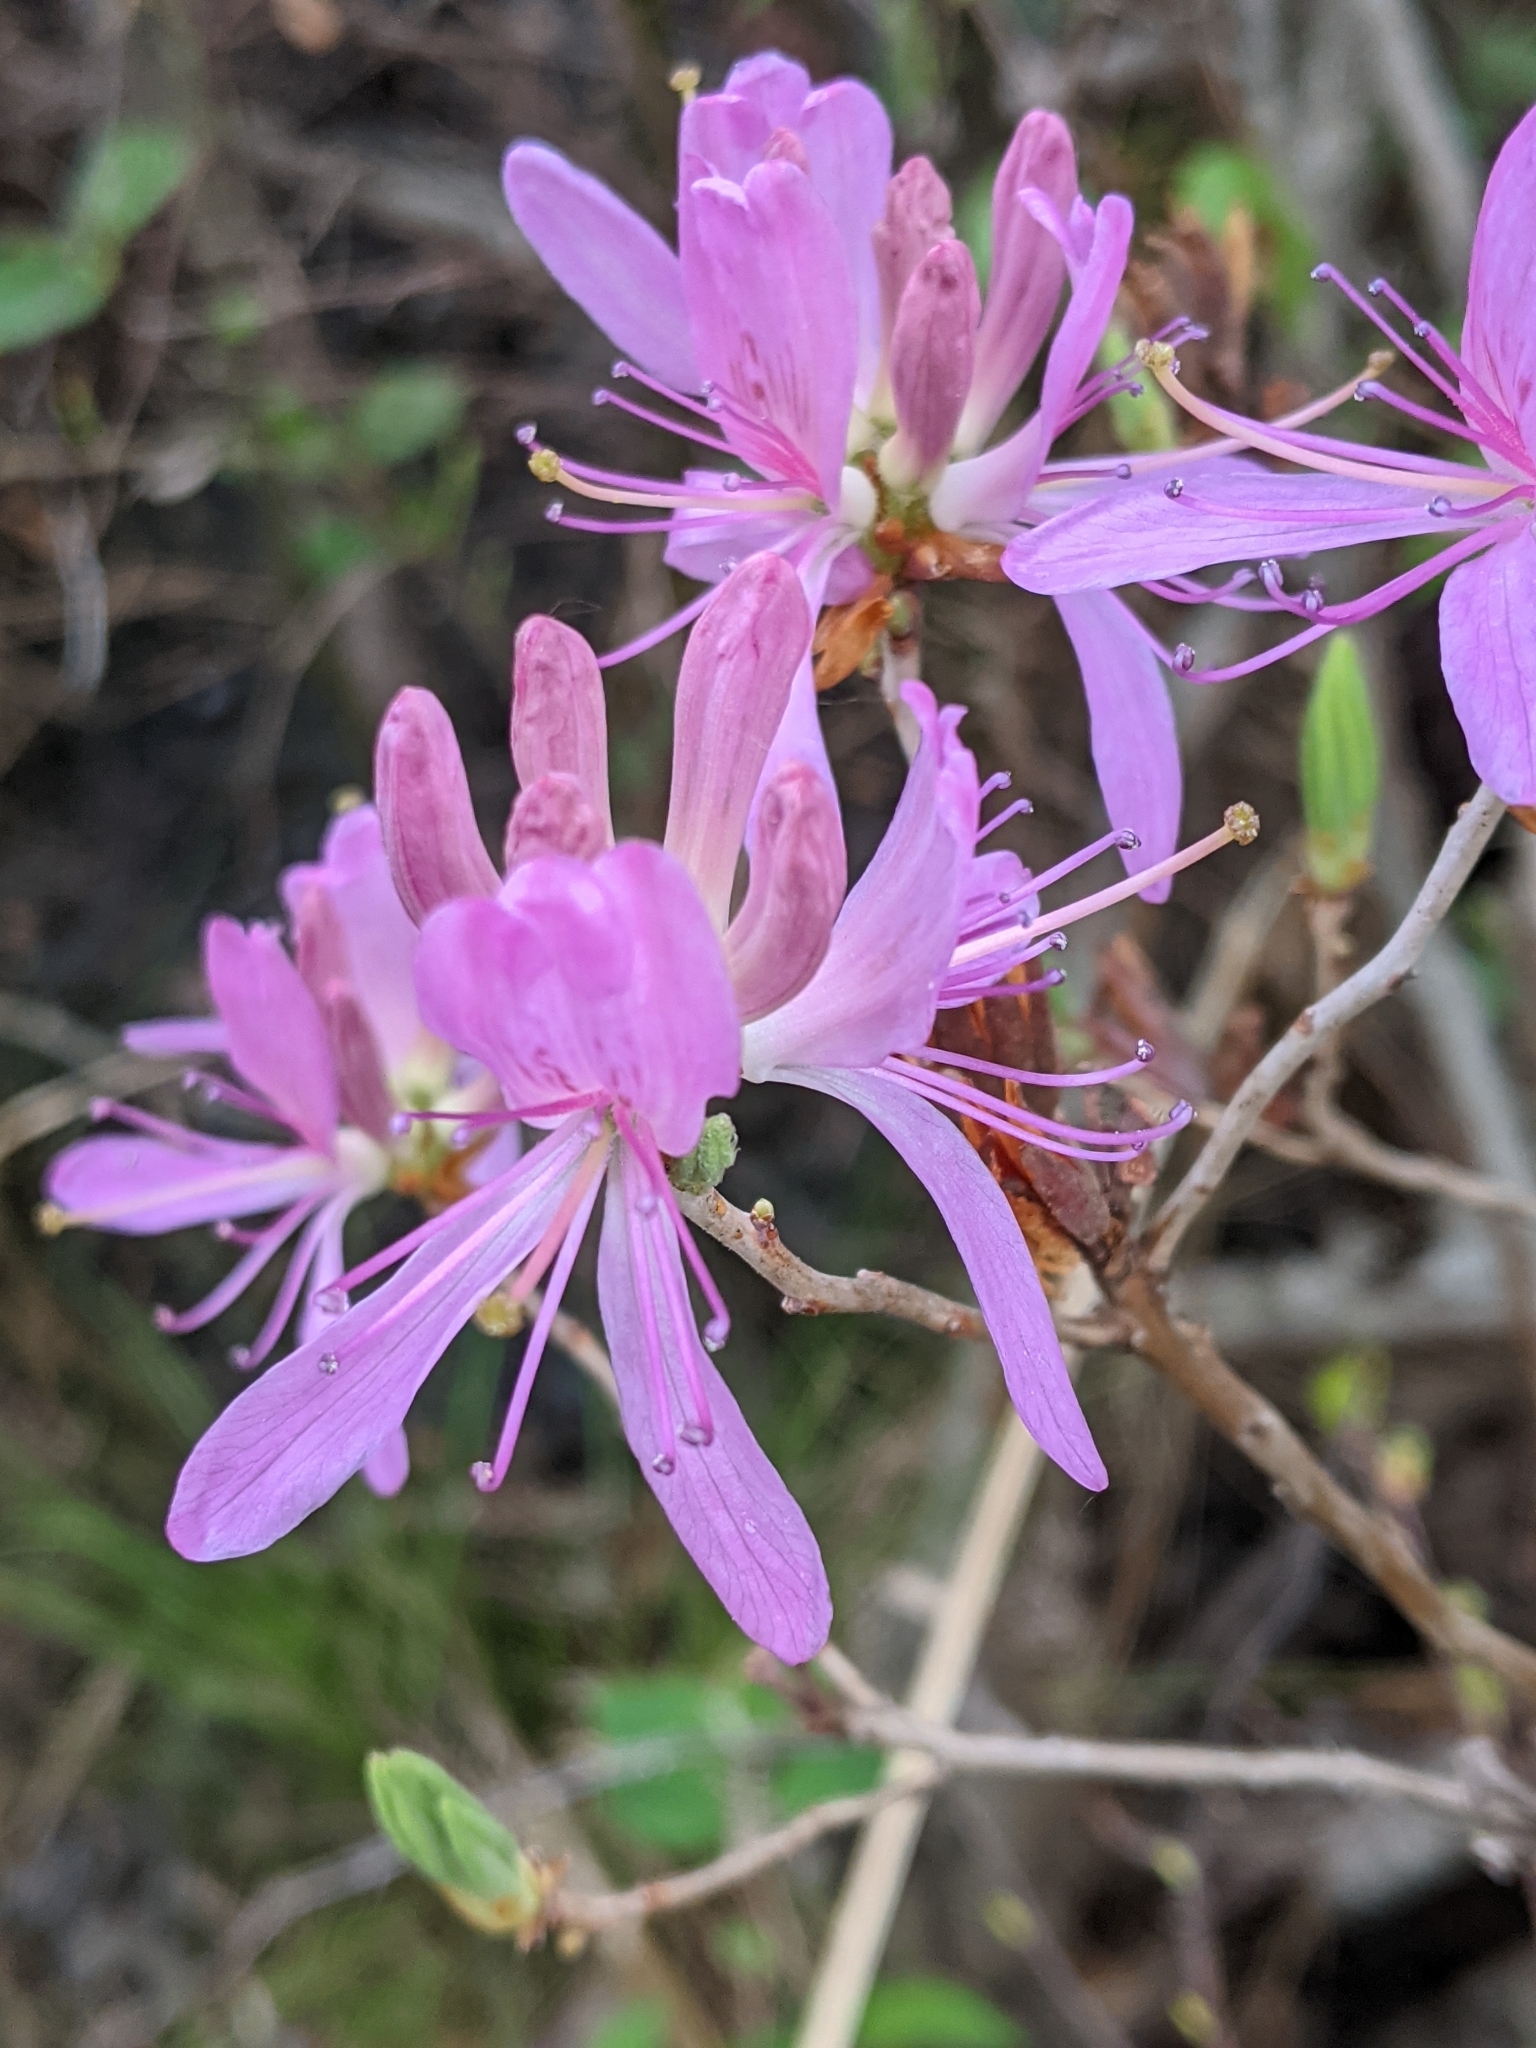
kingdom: Plantae
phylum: Tracheophyta
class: Magnoliopsida
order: Ericales
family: Ericaceae
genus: Rhododendron
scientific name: Rhododendron canadense
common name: Rhodora
